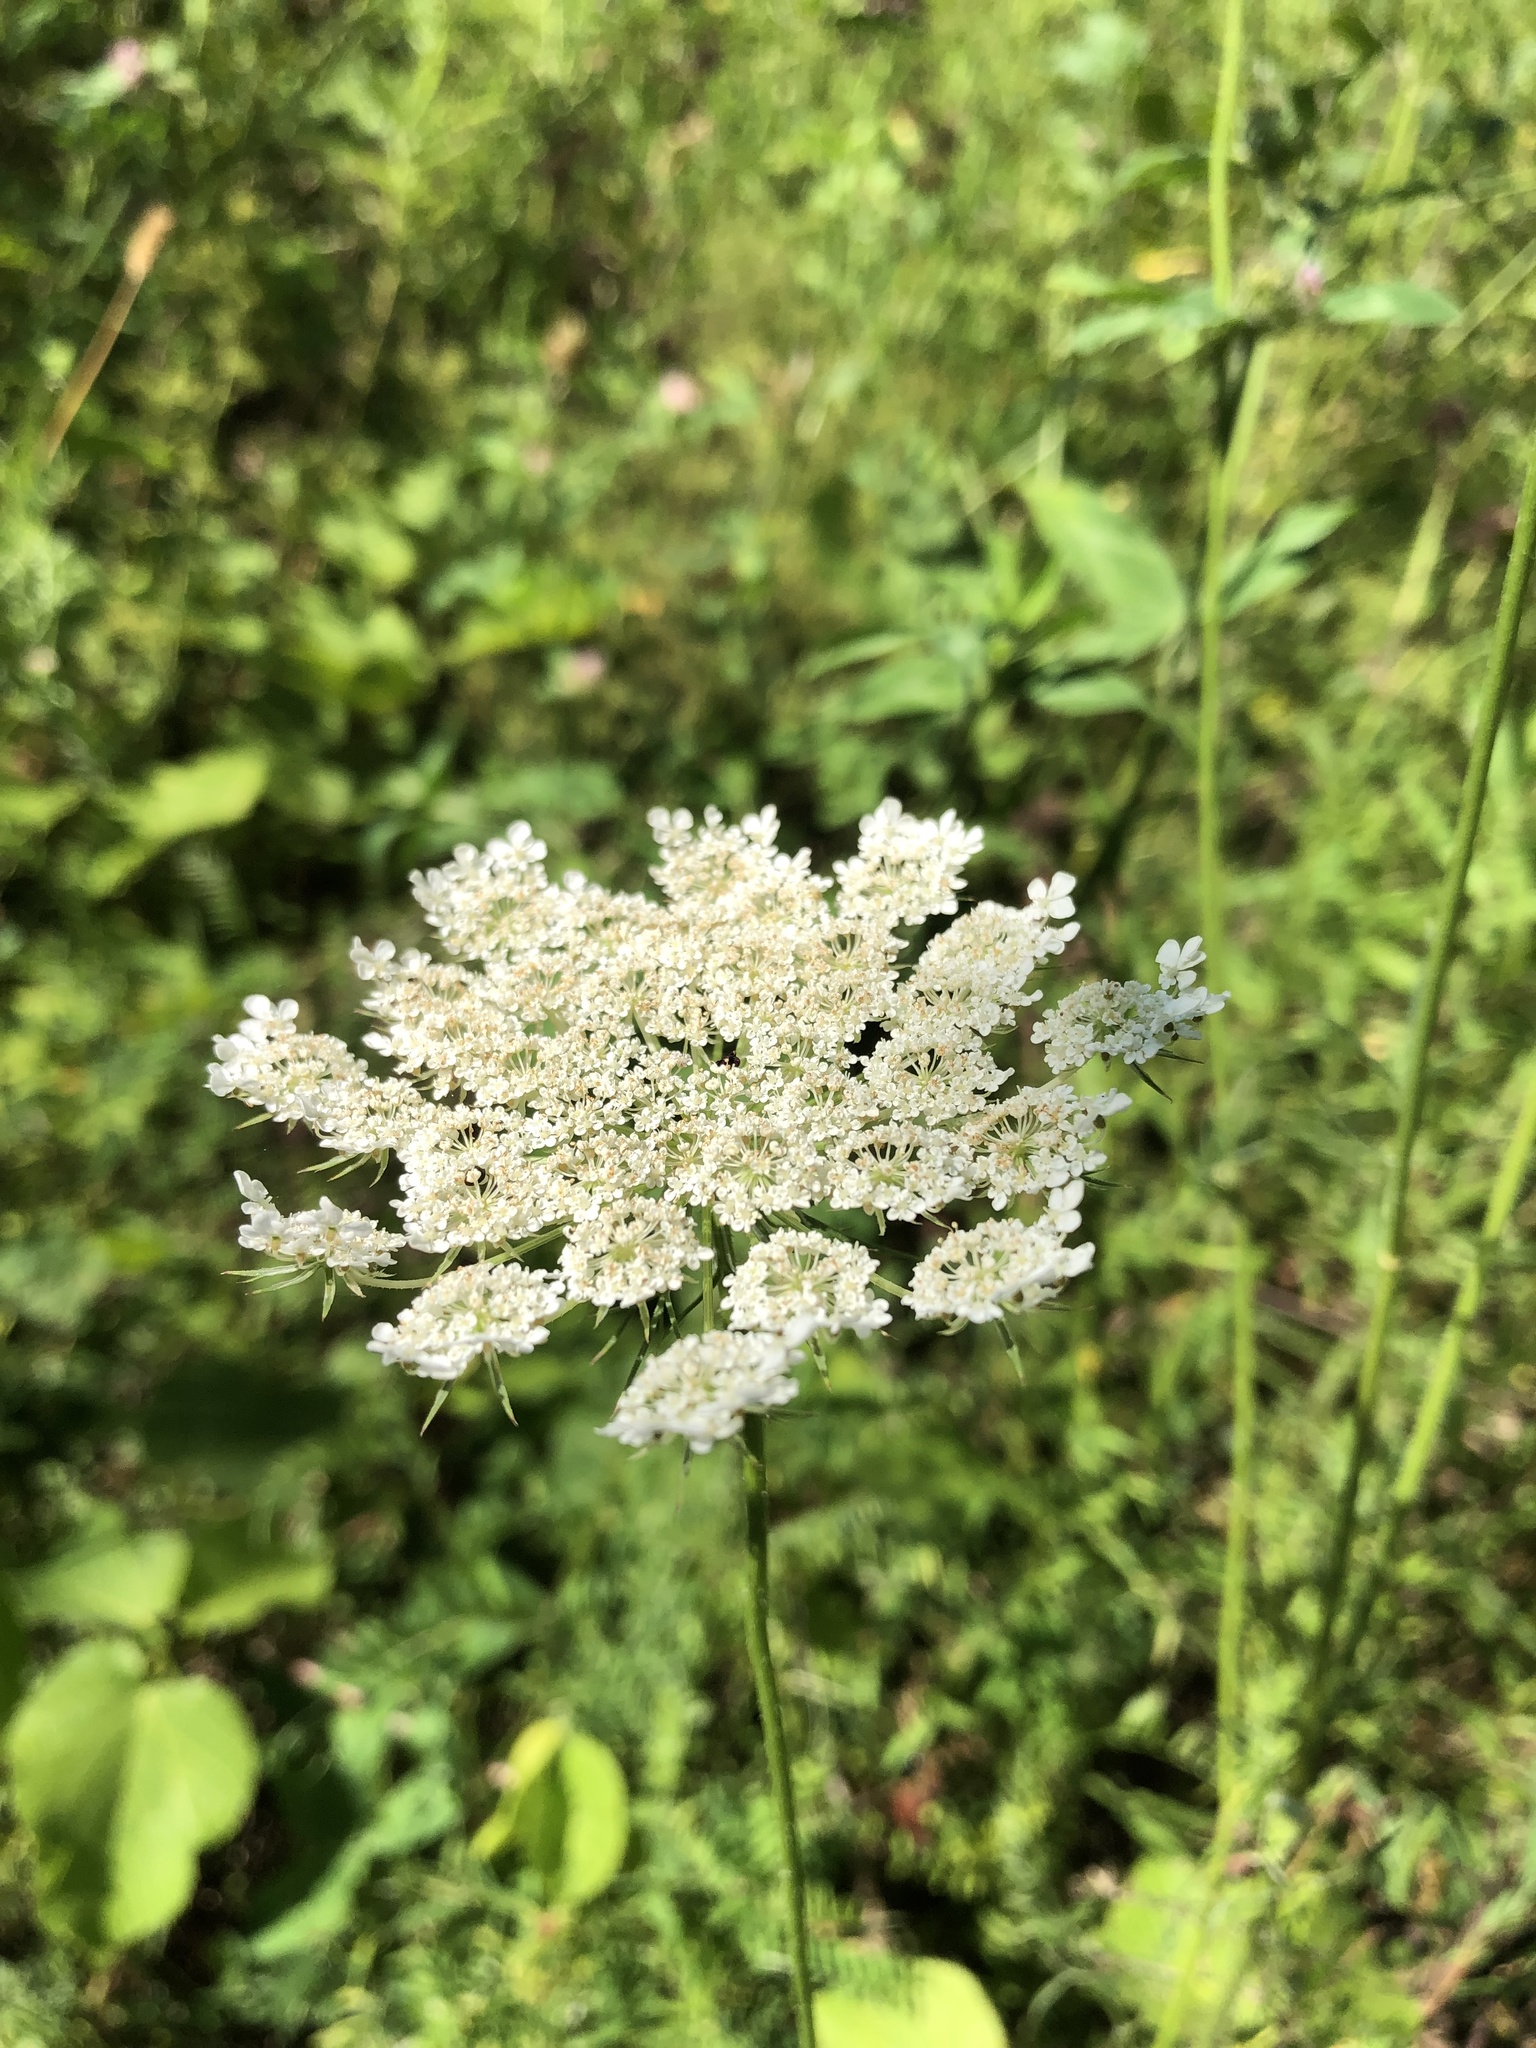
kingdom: Plantae
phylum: Tracheophyta
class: Magnoliopsida
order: Apiales
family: Apiaceae
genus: Daucus
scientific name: Daucus carota
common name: Wild carrot
